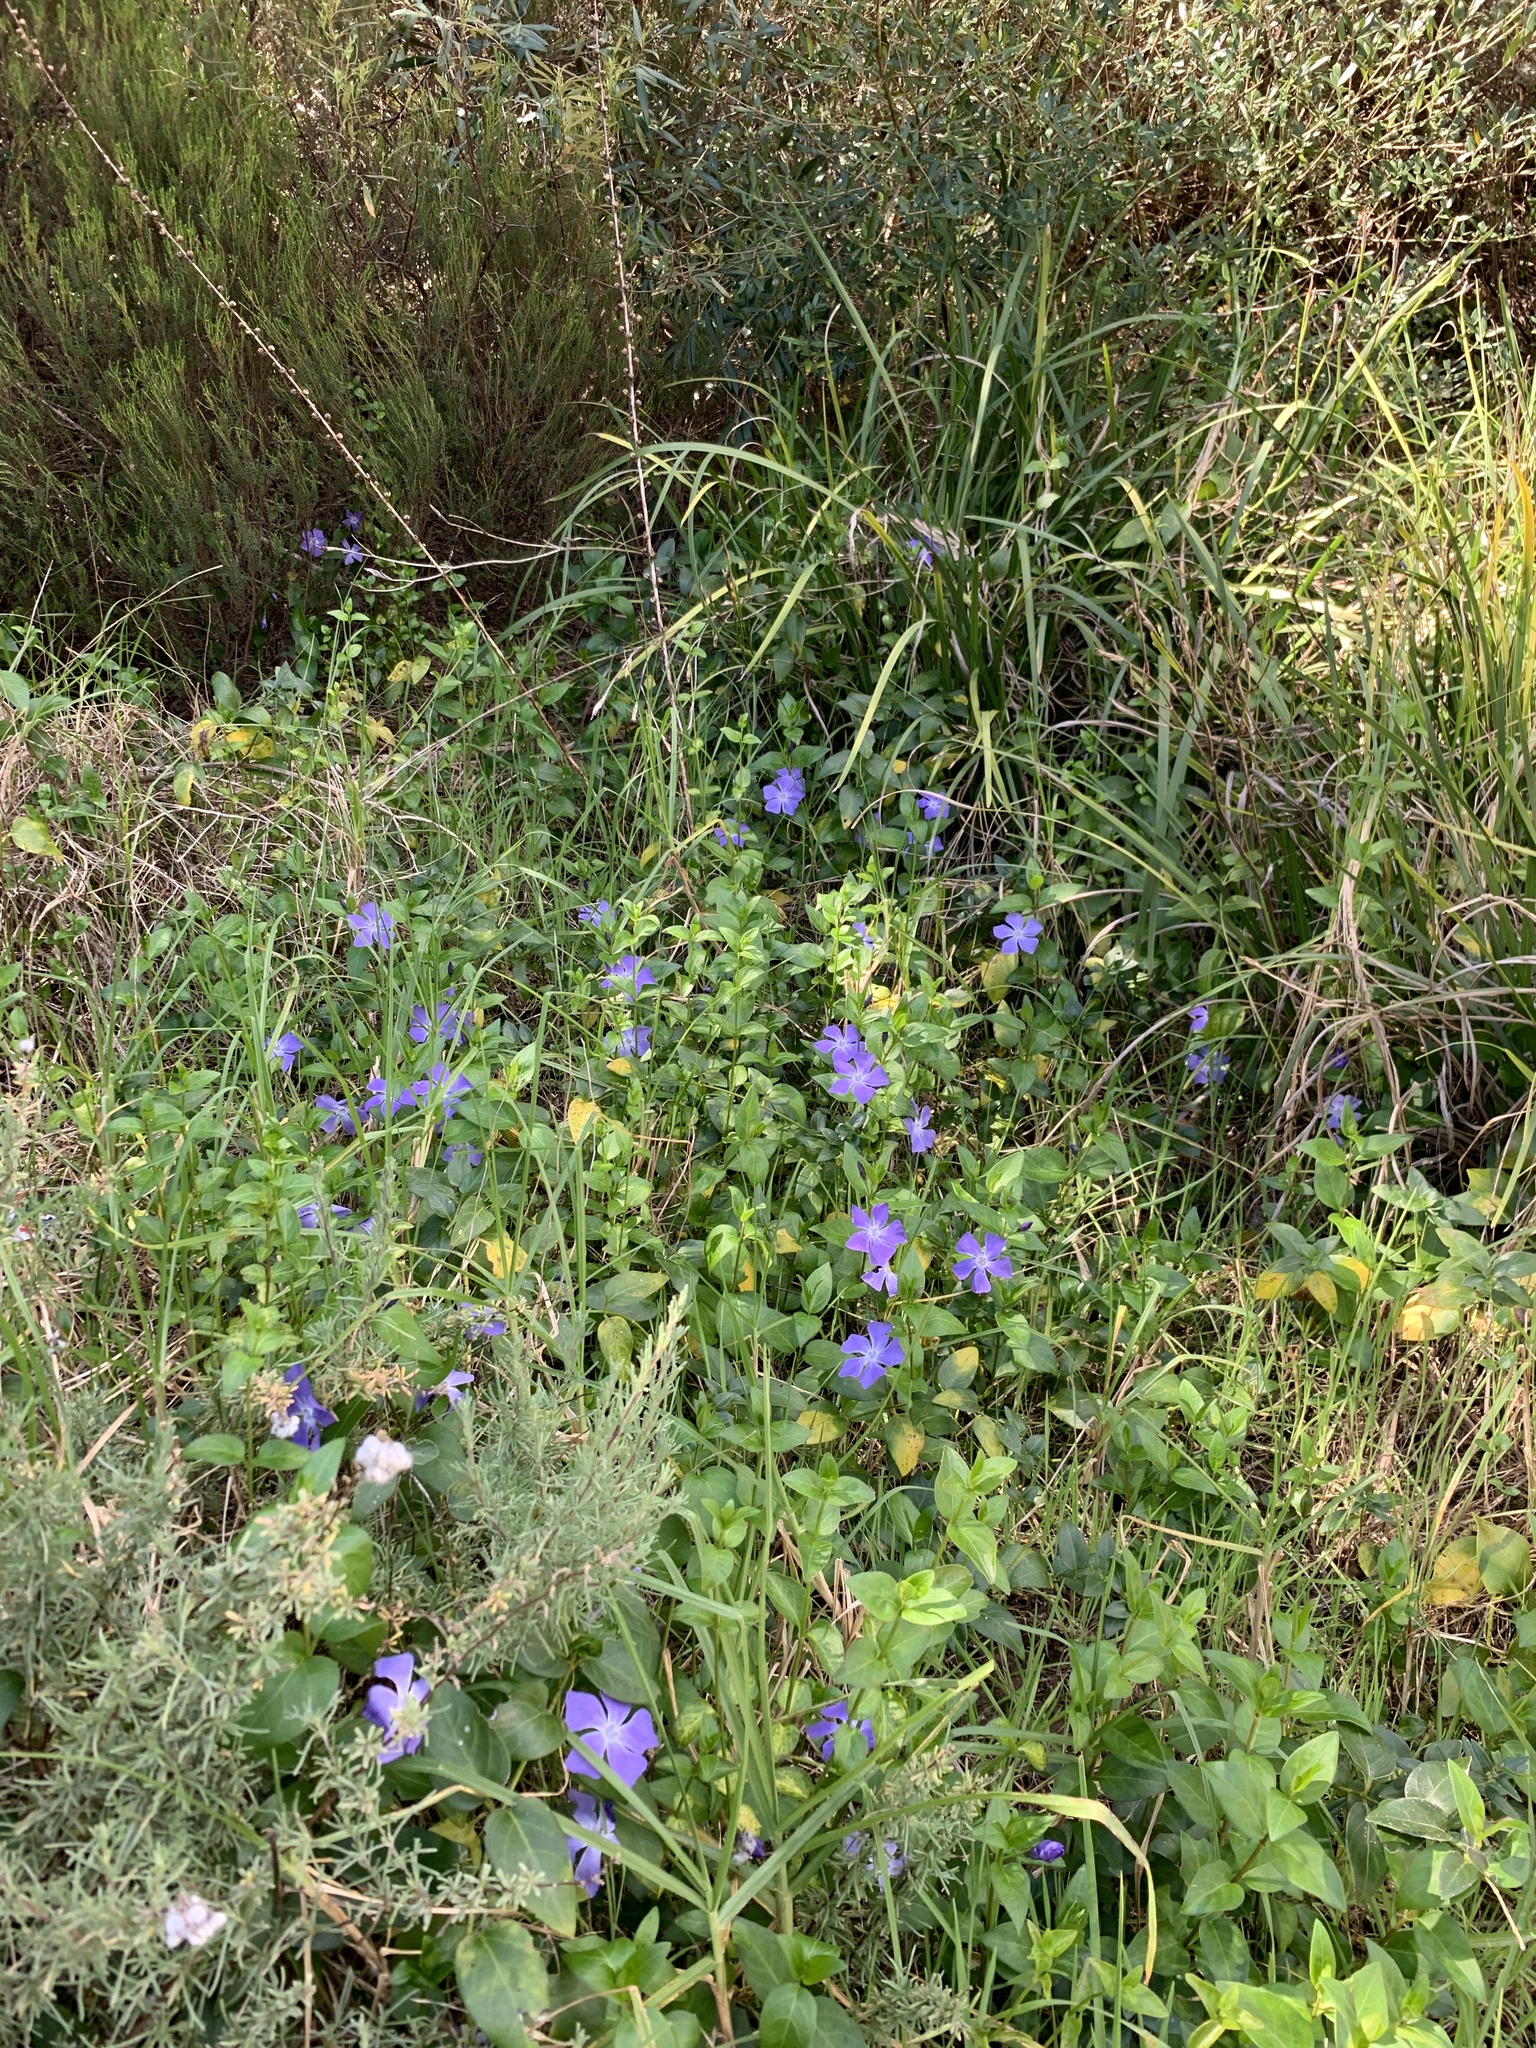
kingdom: Plantae
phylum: Tracheophyta
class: Magnoliopsida
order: Gentianales
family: Apocynaceae
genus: Vinca
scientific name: Vinca major
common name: Greater periwinkle
